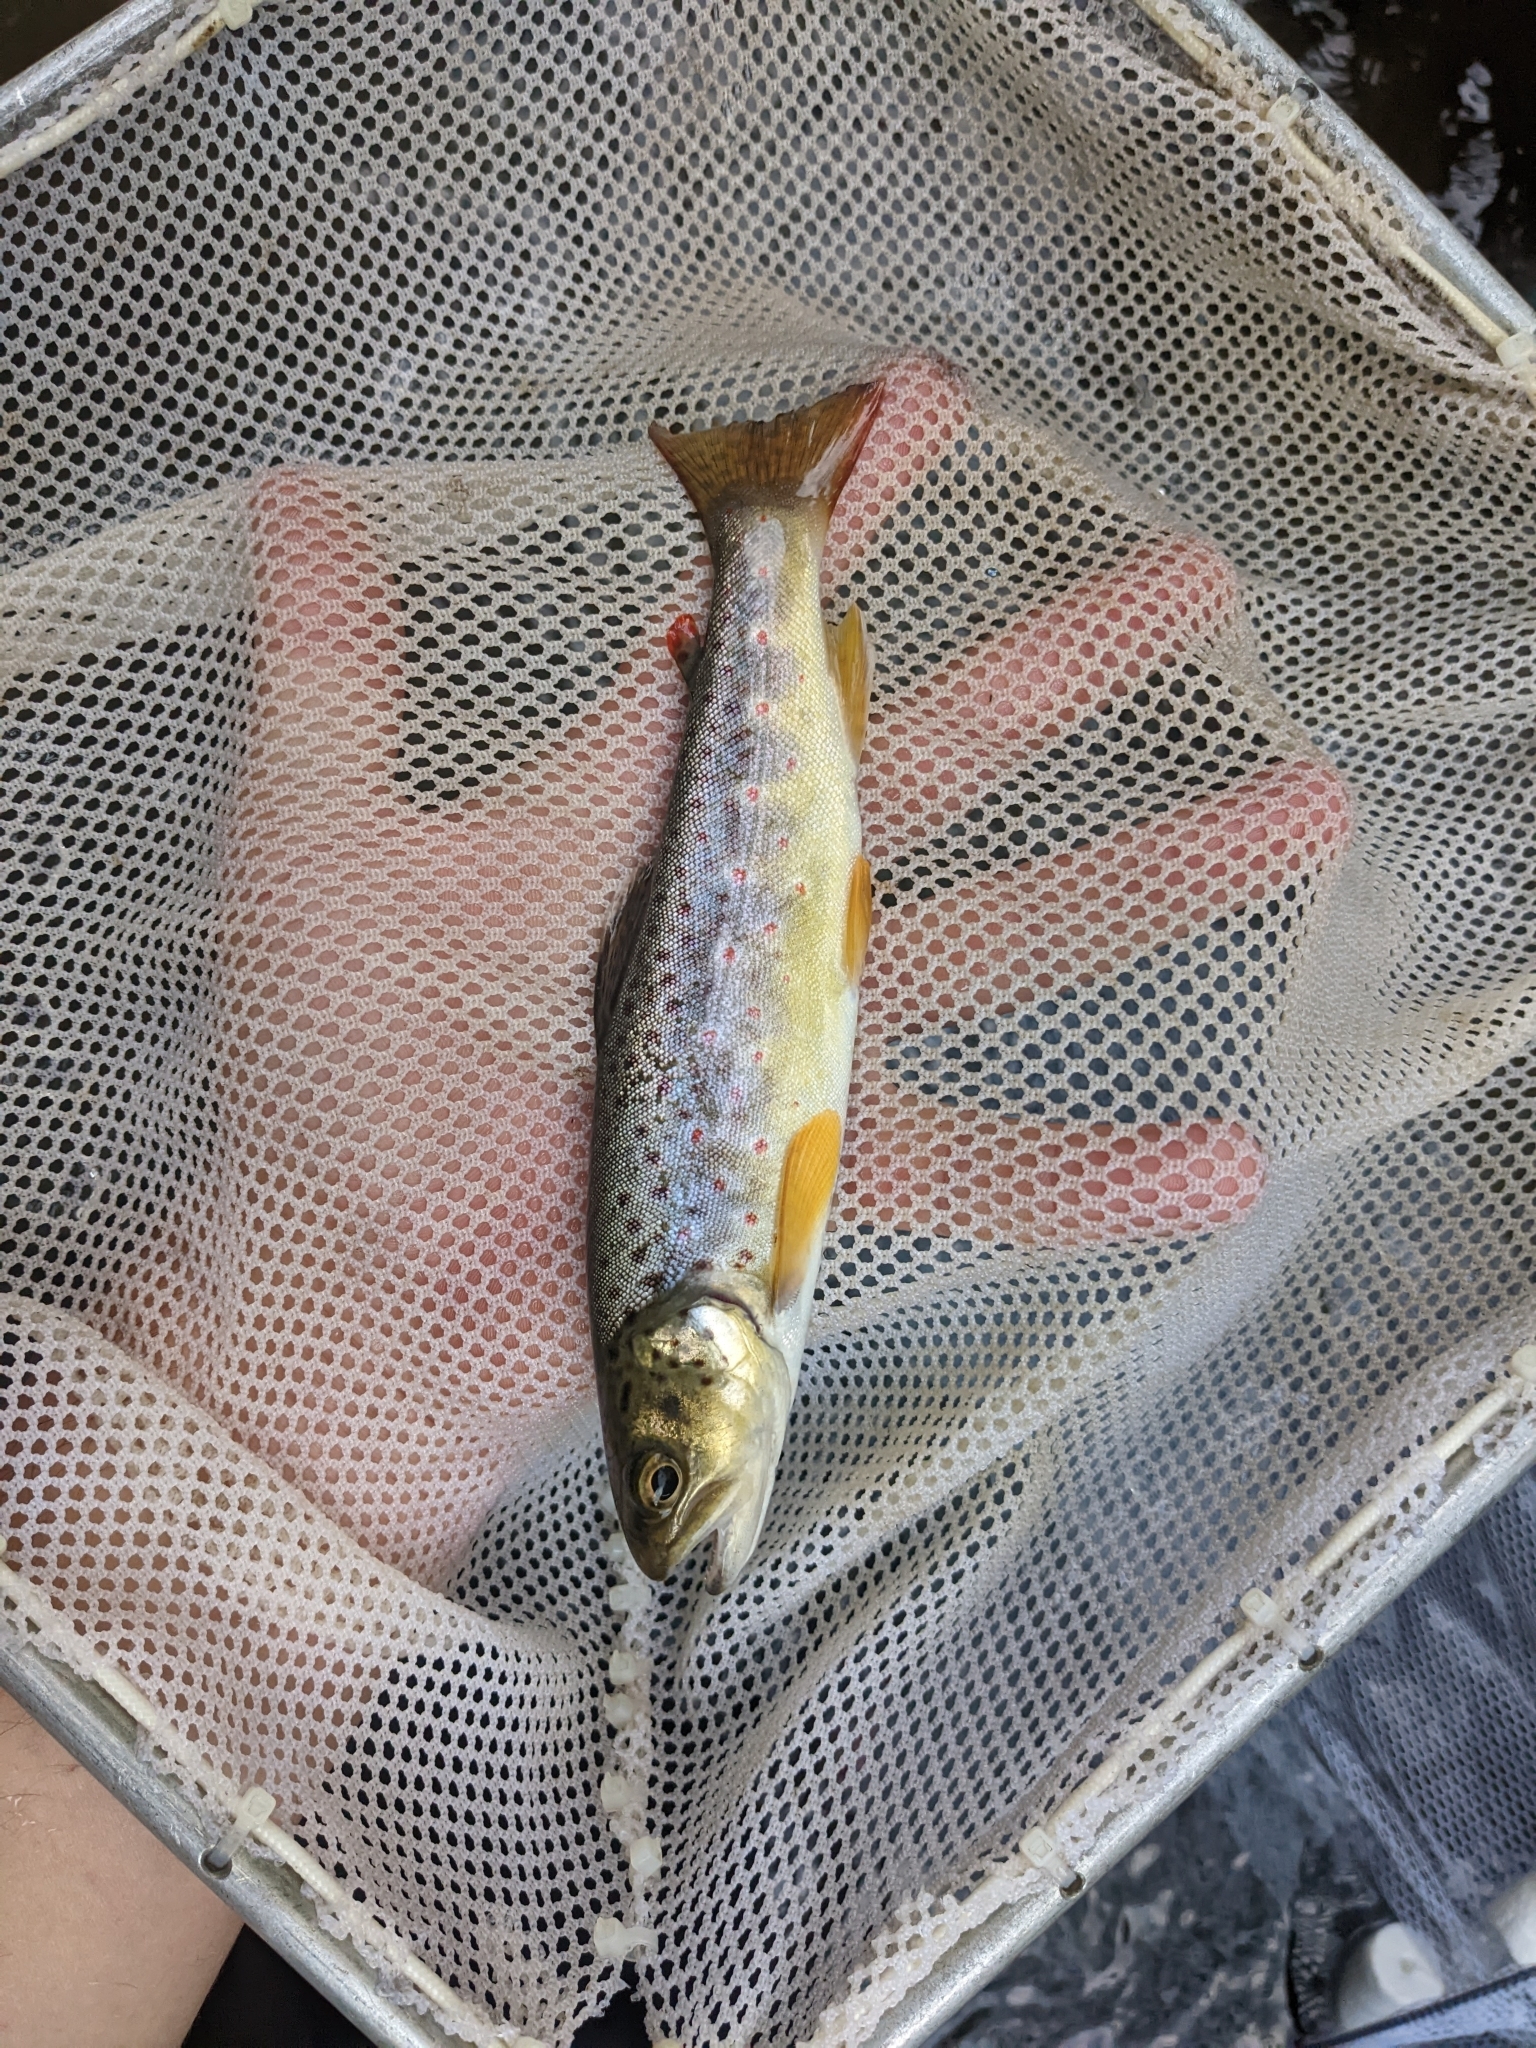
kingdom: Animalia
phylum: Chordata
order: Salmoniformes
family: Salmonidae
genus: Salmo
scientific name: Salmo trutta
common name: Brown trout
